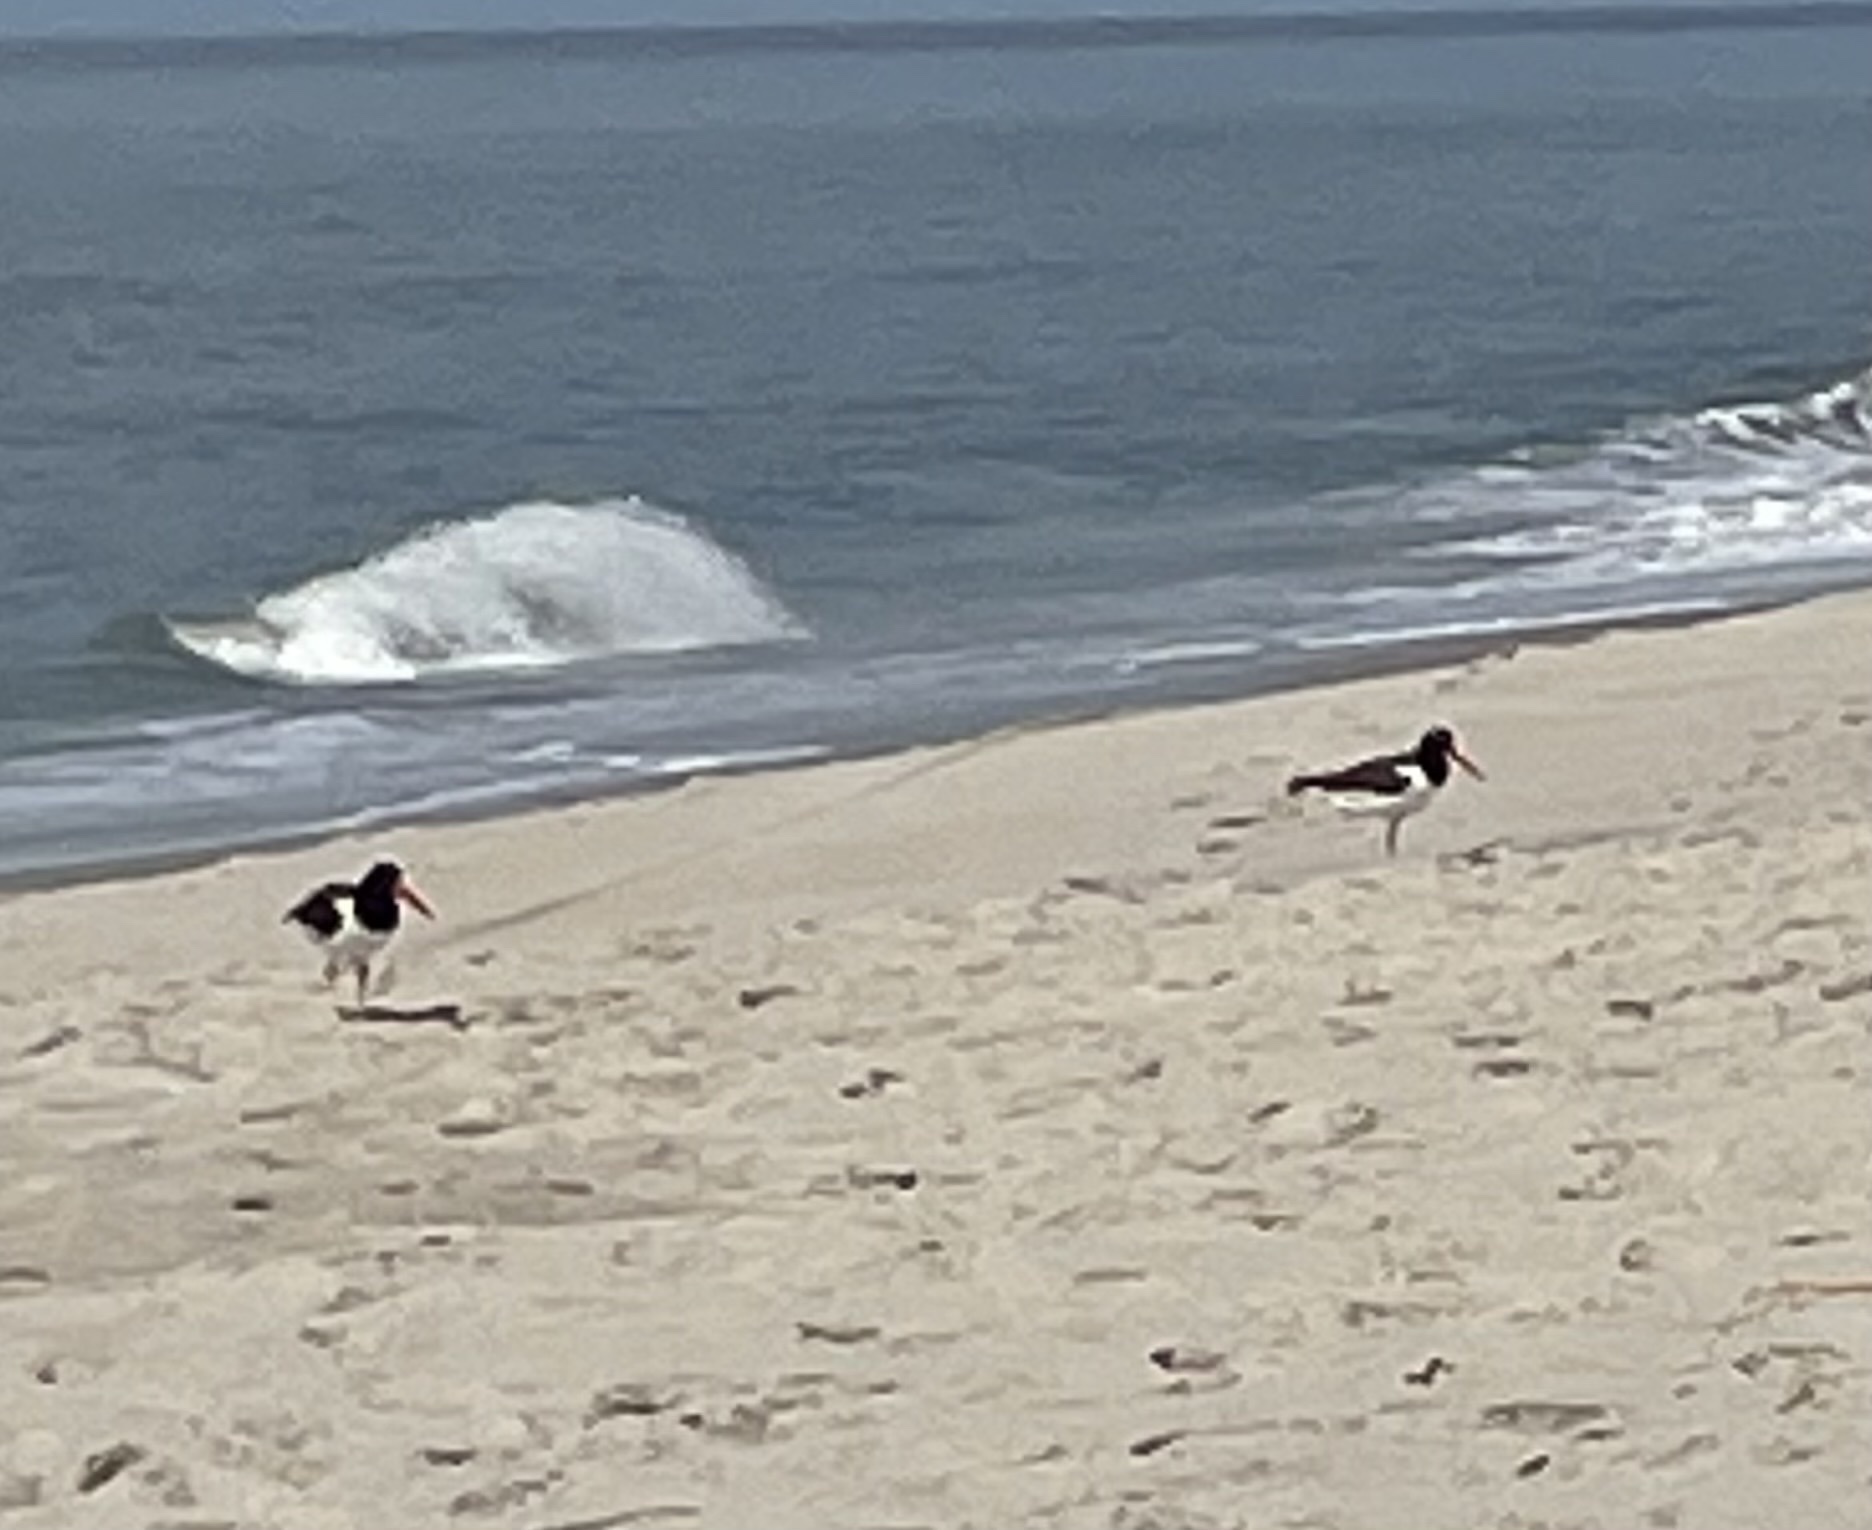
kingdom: Animalia
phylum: Chordata
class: Aves
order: Charadriiformes
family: Haematopodidae
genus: Haematopus
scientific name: Haematopus palliatus
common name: American oystercatcher
